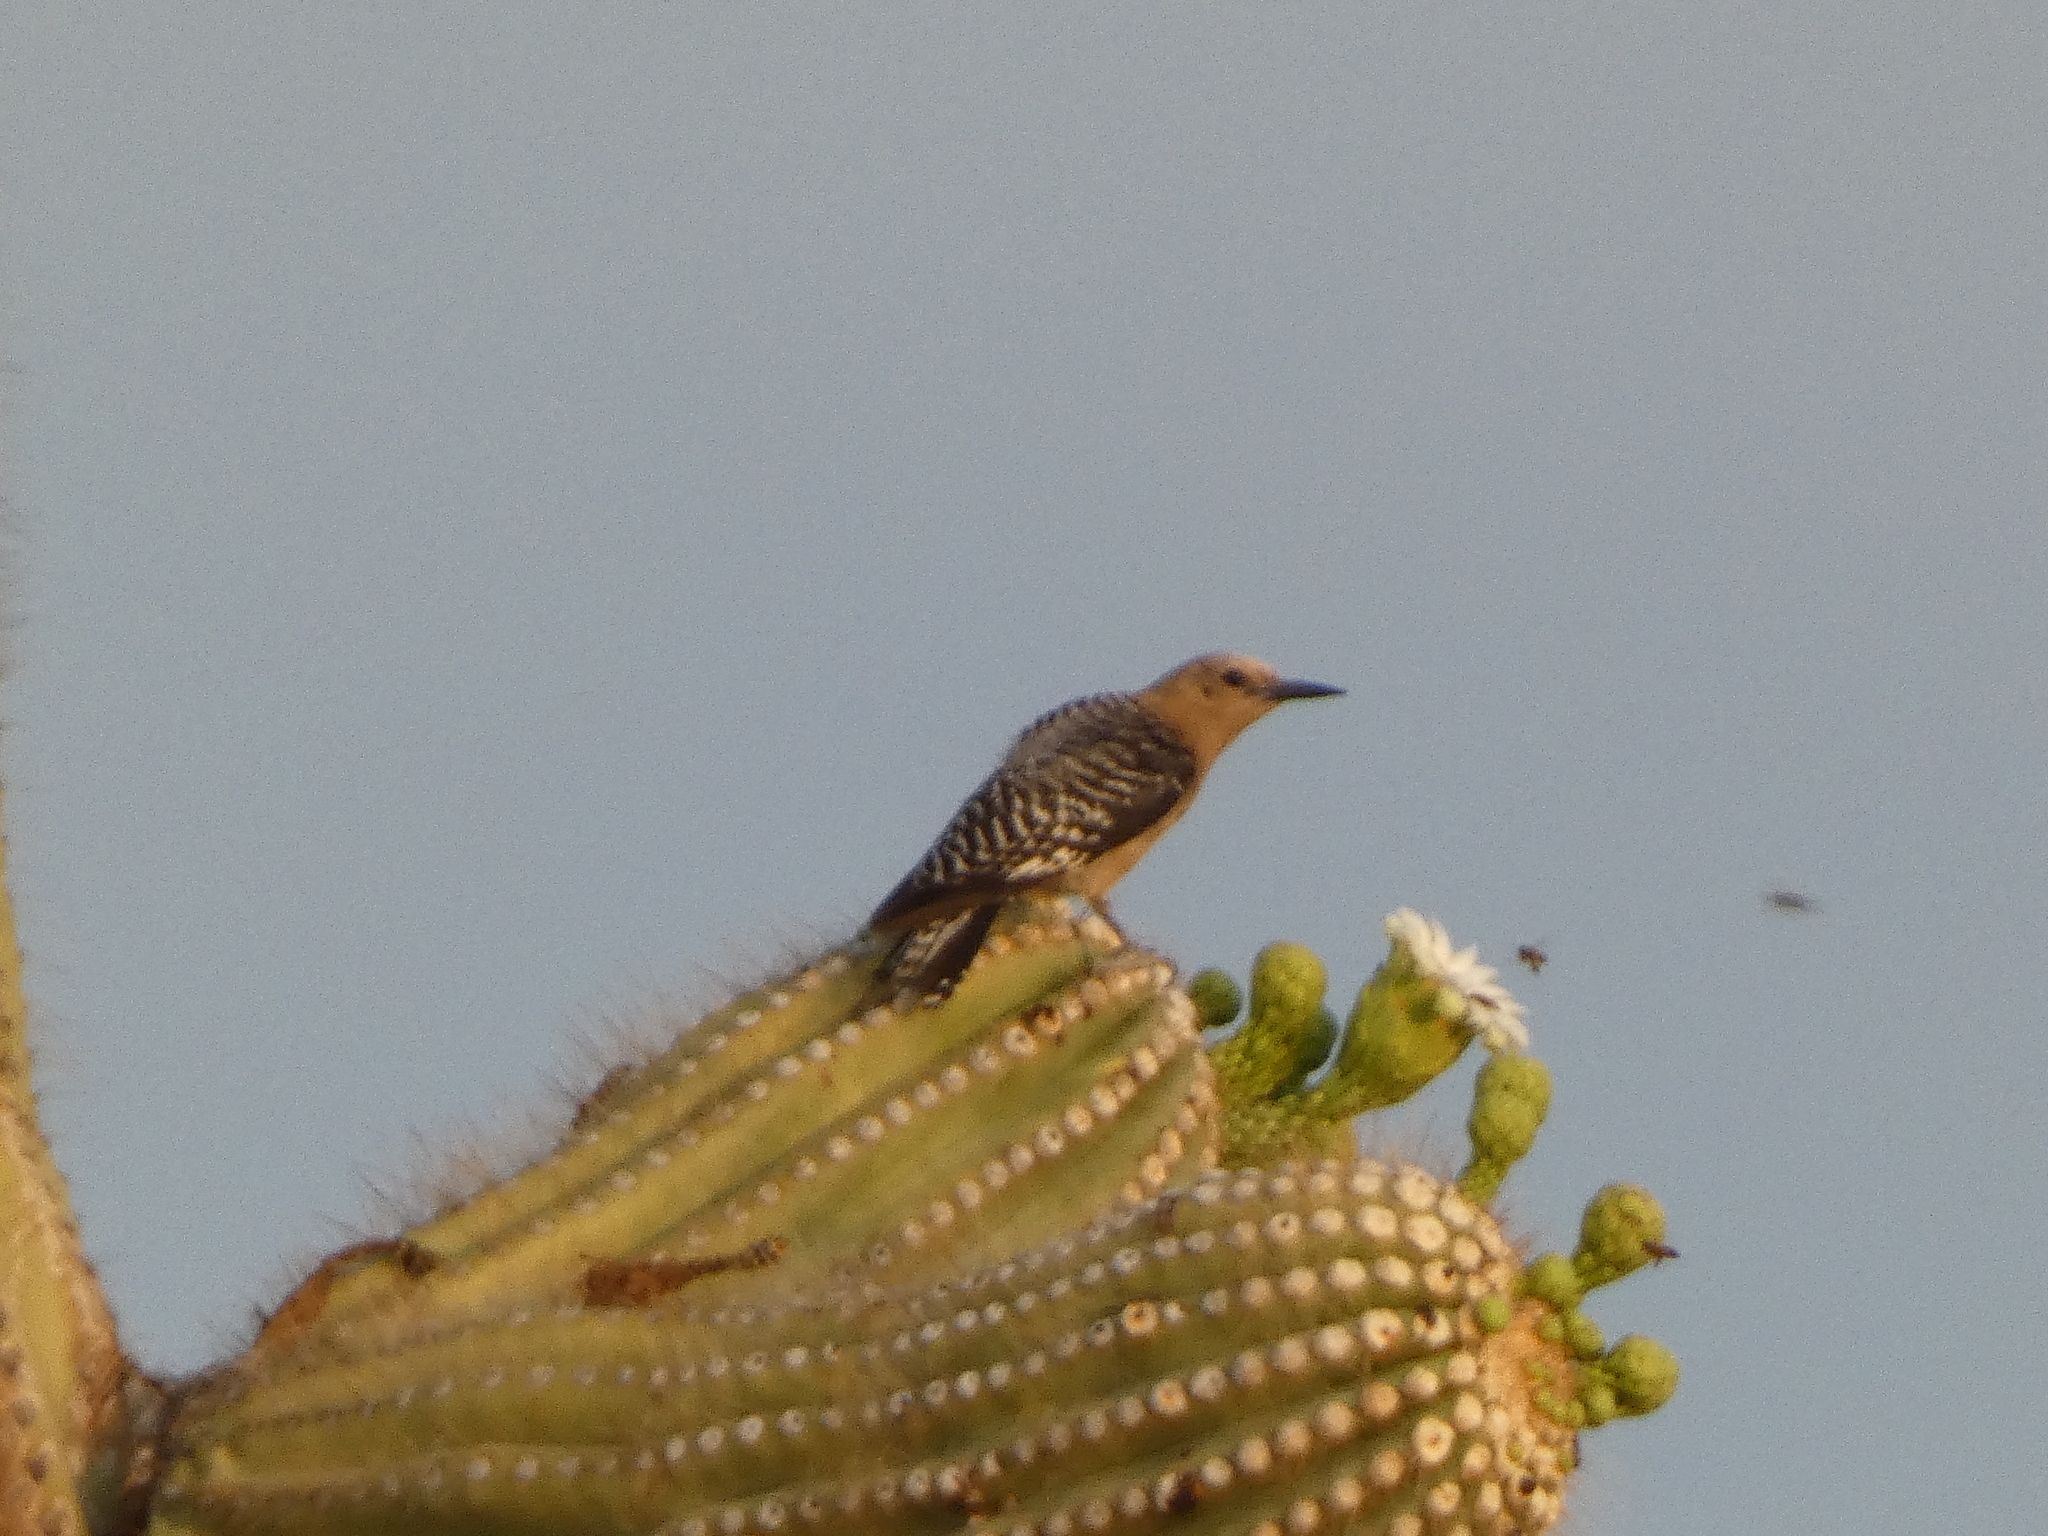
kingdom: Animalia
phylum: Chordata
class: Aves
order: Piciformes
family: Picidae
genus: Melanerpes
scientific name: Melanerpes uropygialis
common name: Gila woodpecker
